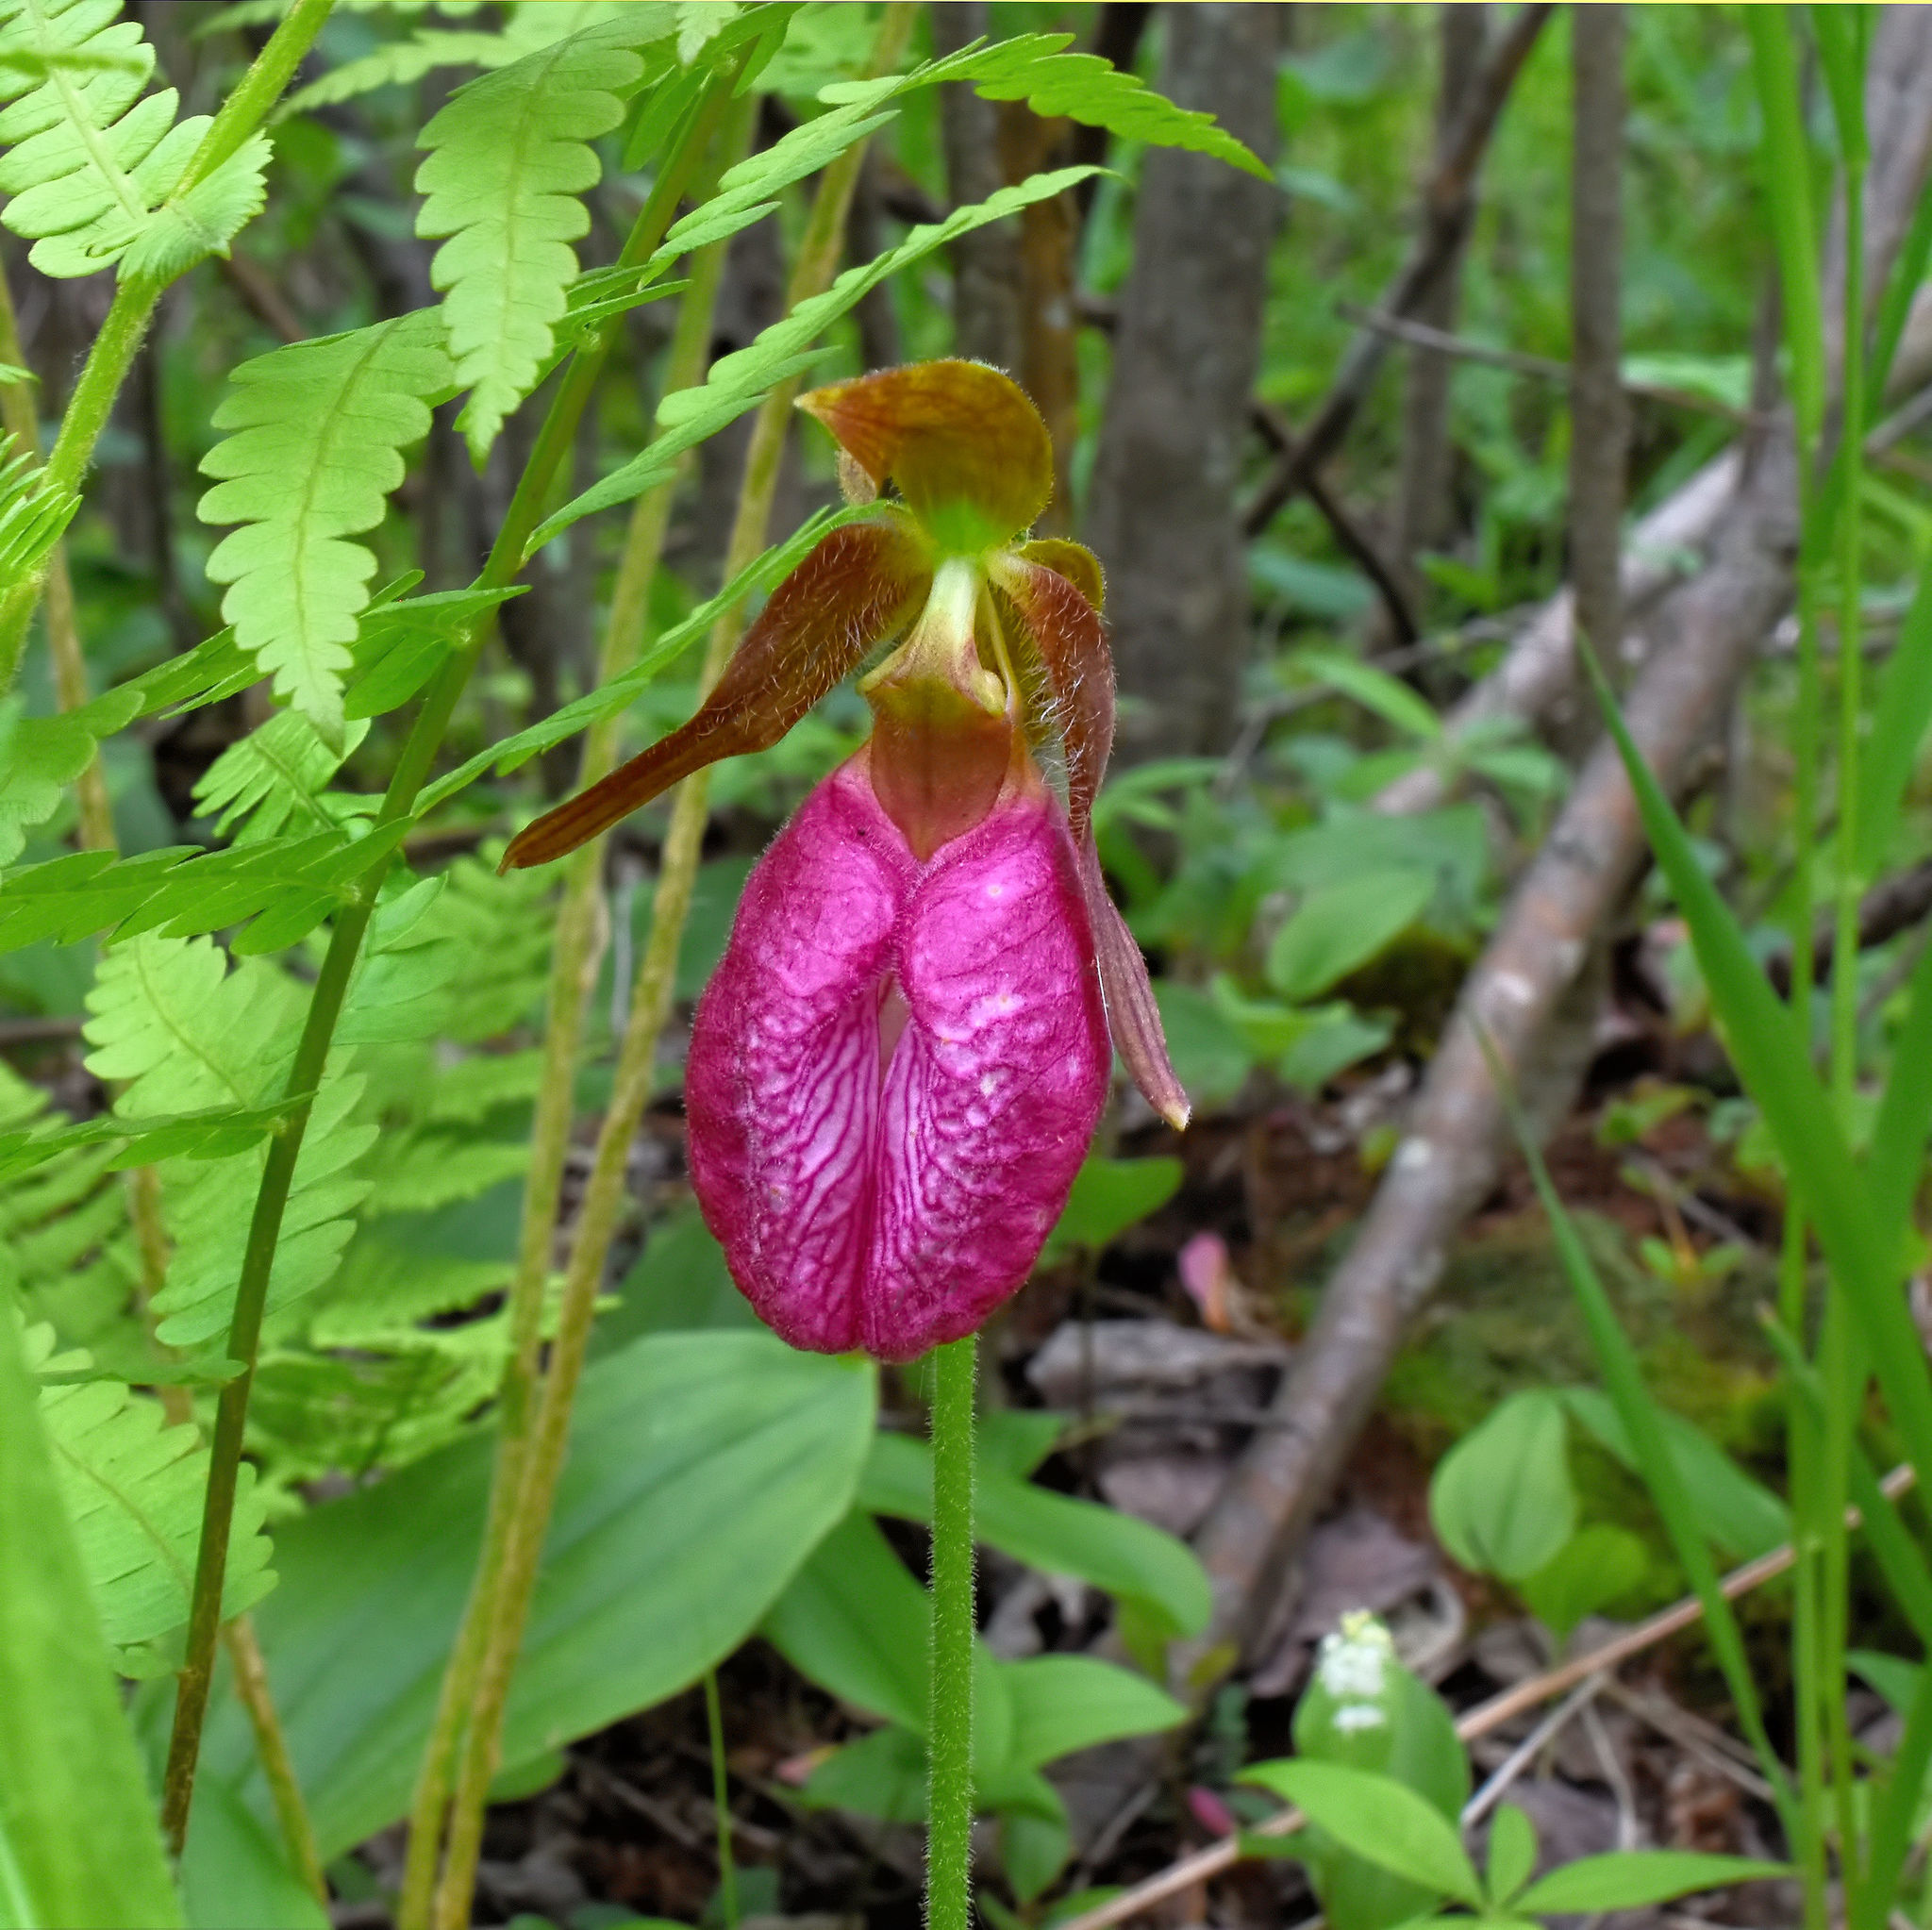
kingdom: Plantae
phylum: Tracheophyta
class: Liliopsida
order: Asparagales
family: Orchidaceae
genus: Cypripedium
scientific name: Cypripedium acaule
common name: Pink lady's-slipper
